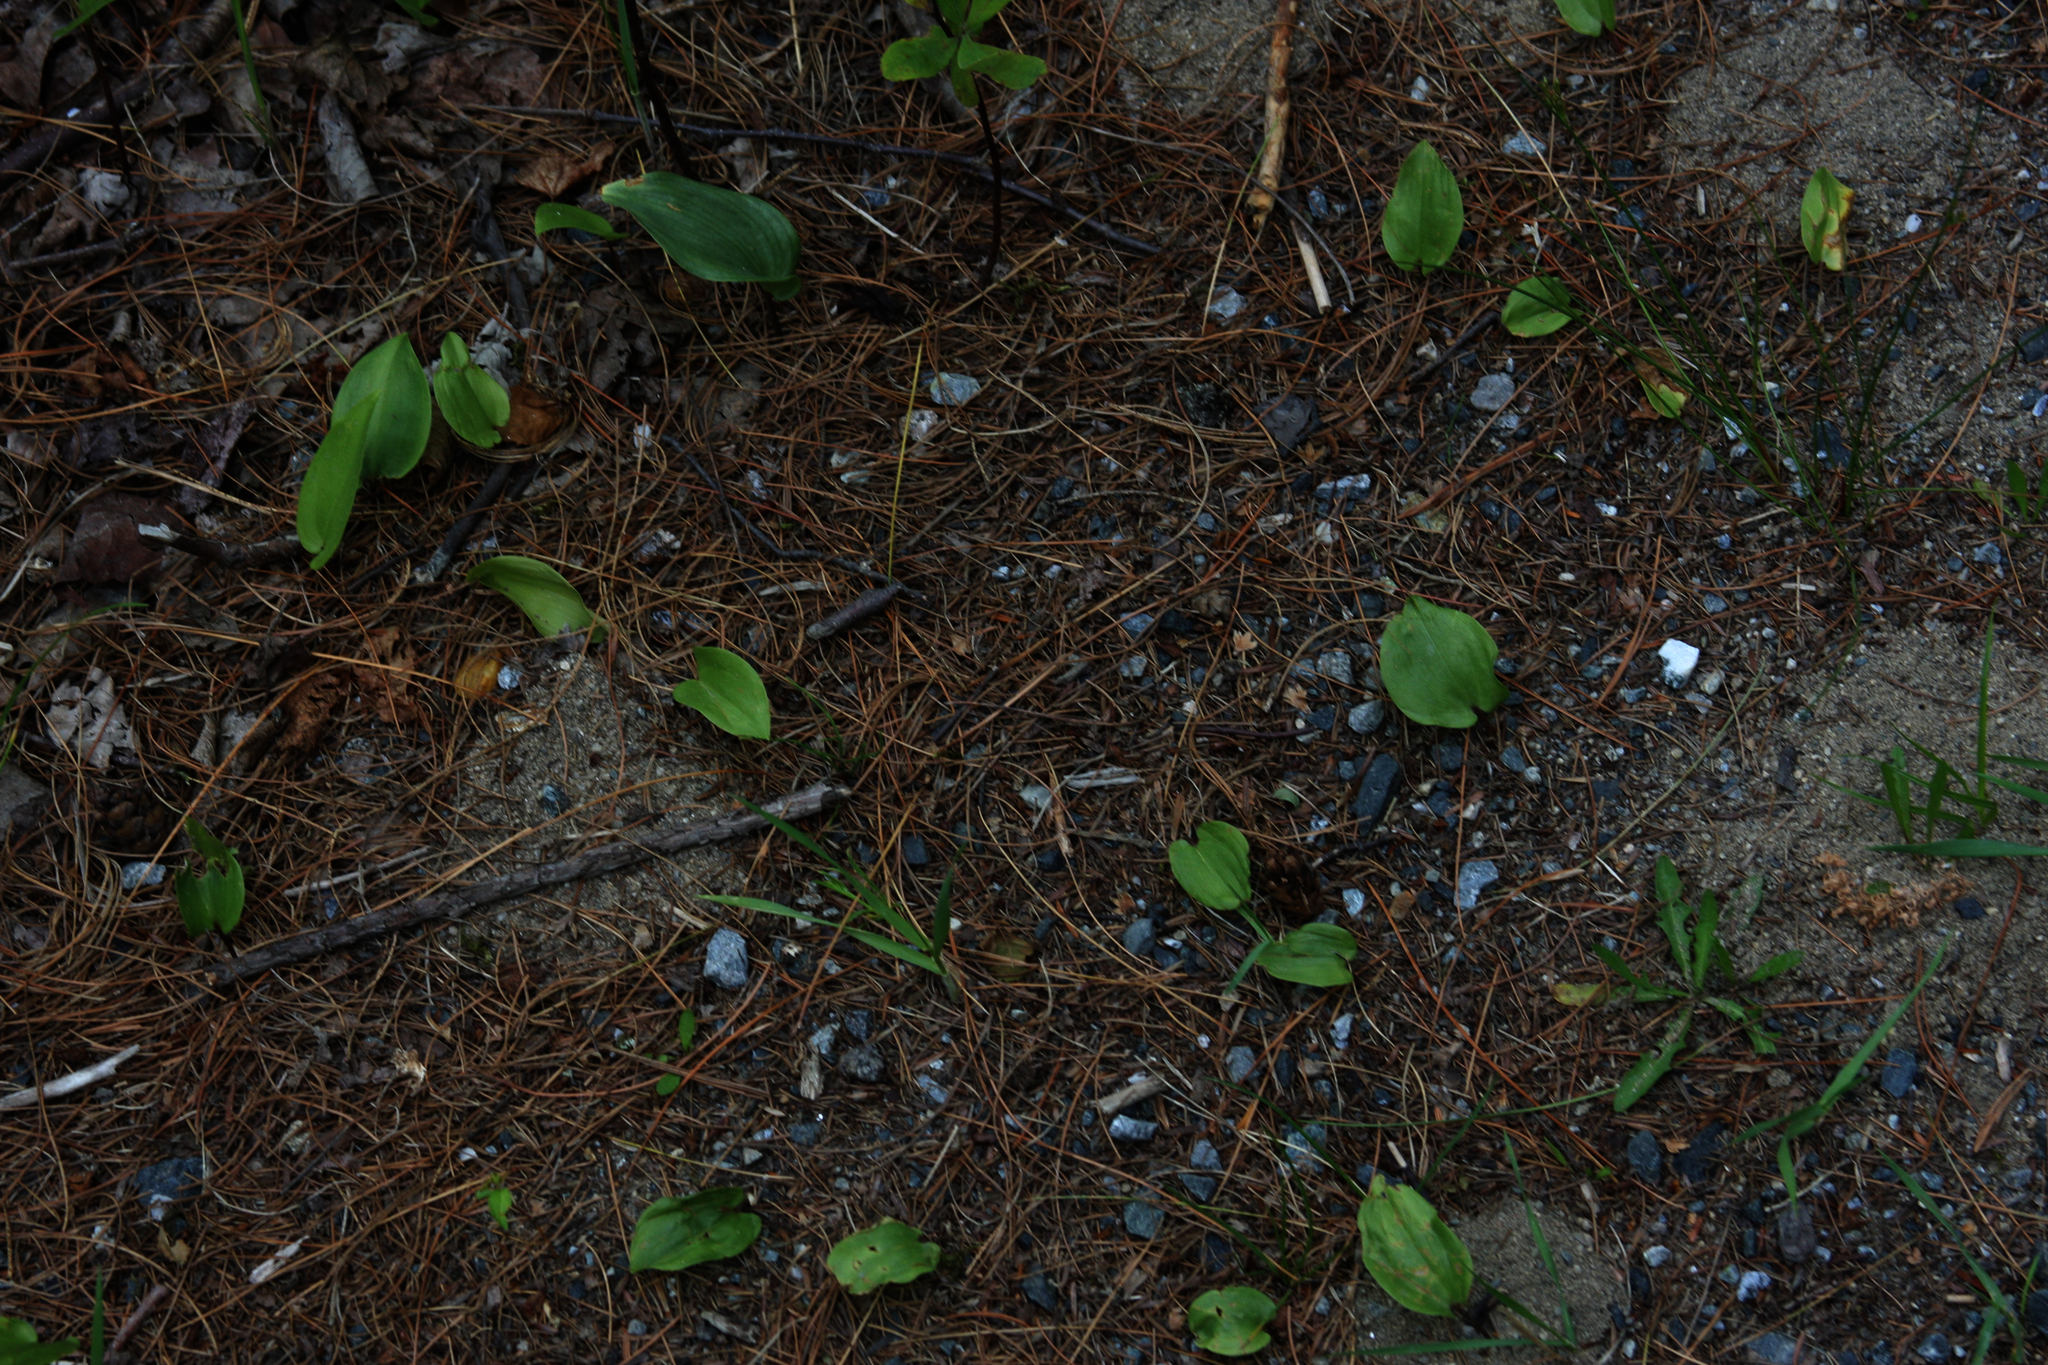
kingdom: Plantae
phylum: Tracheophyta
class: Liliopsida
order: Asparagales
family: Asparagaceae
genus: Maianthemum
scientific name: Maianthemum canadense
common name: False lily-of-the-valley
